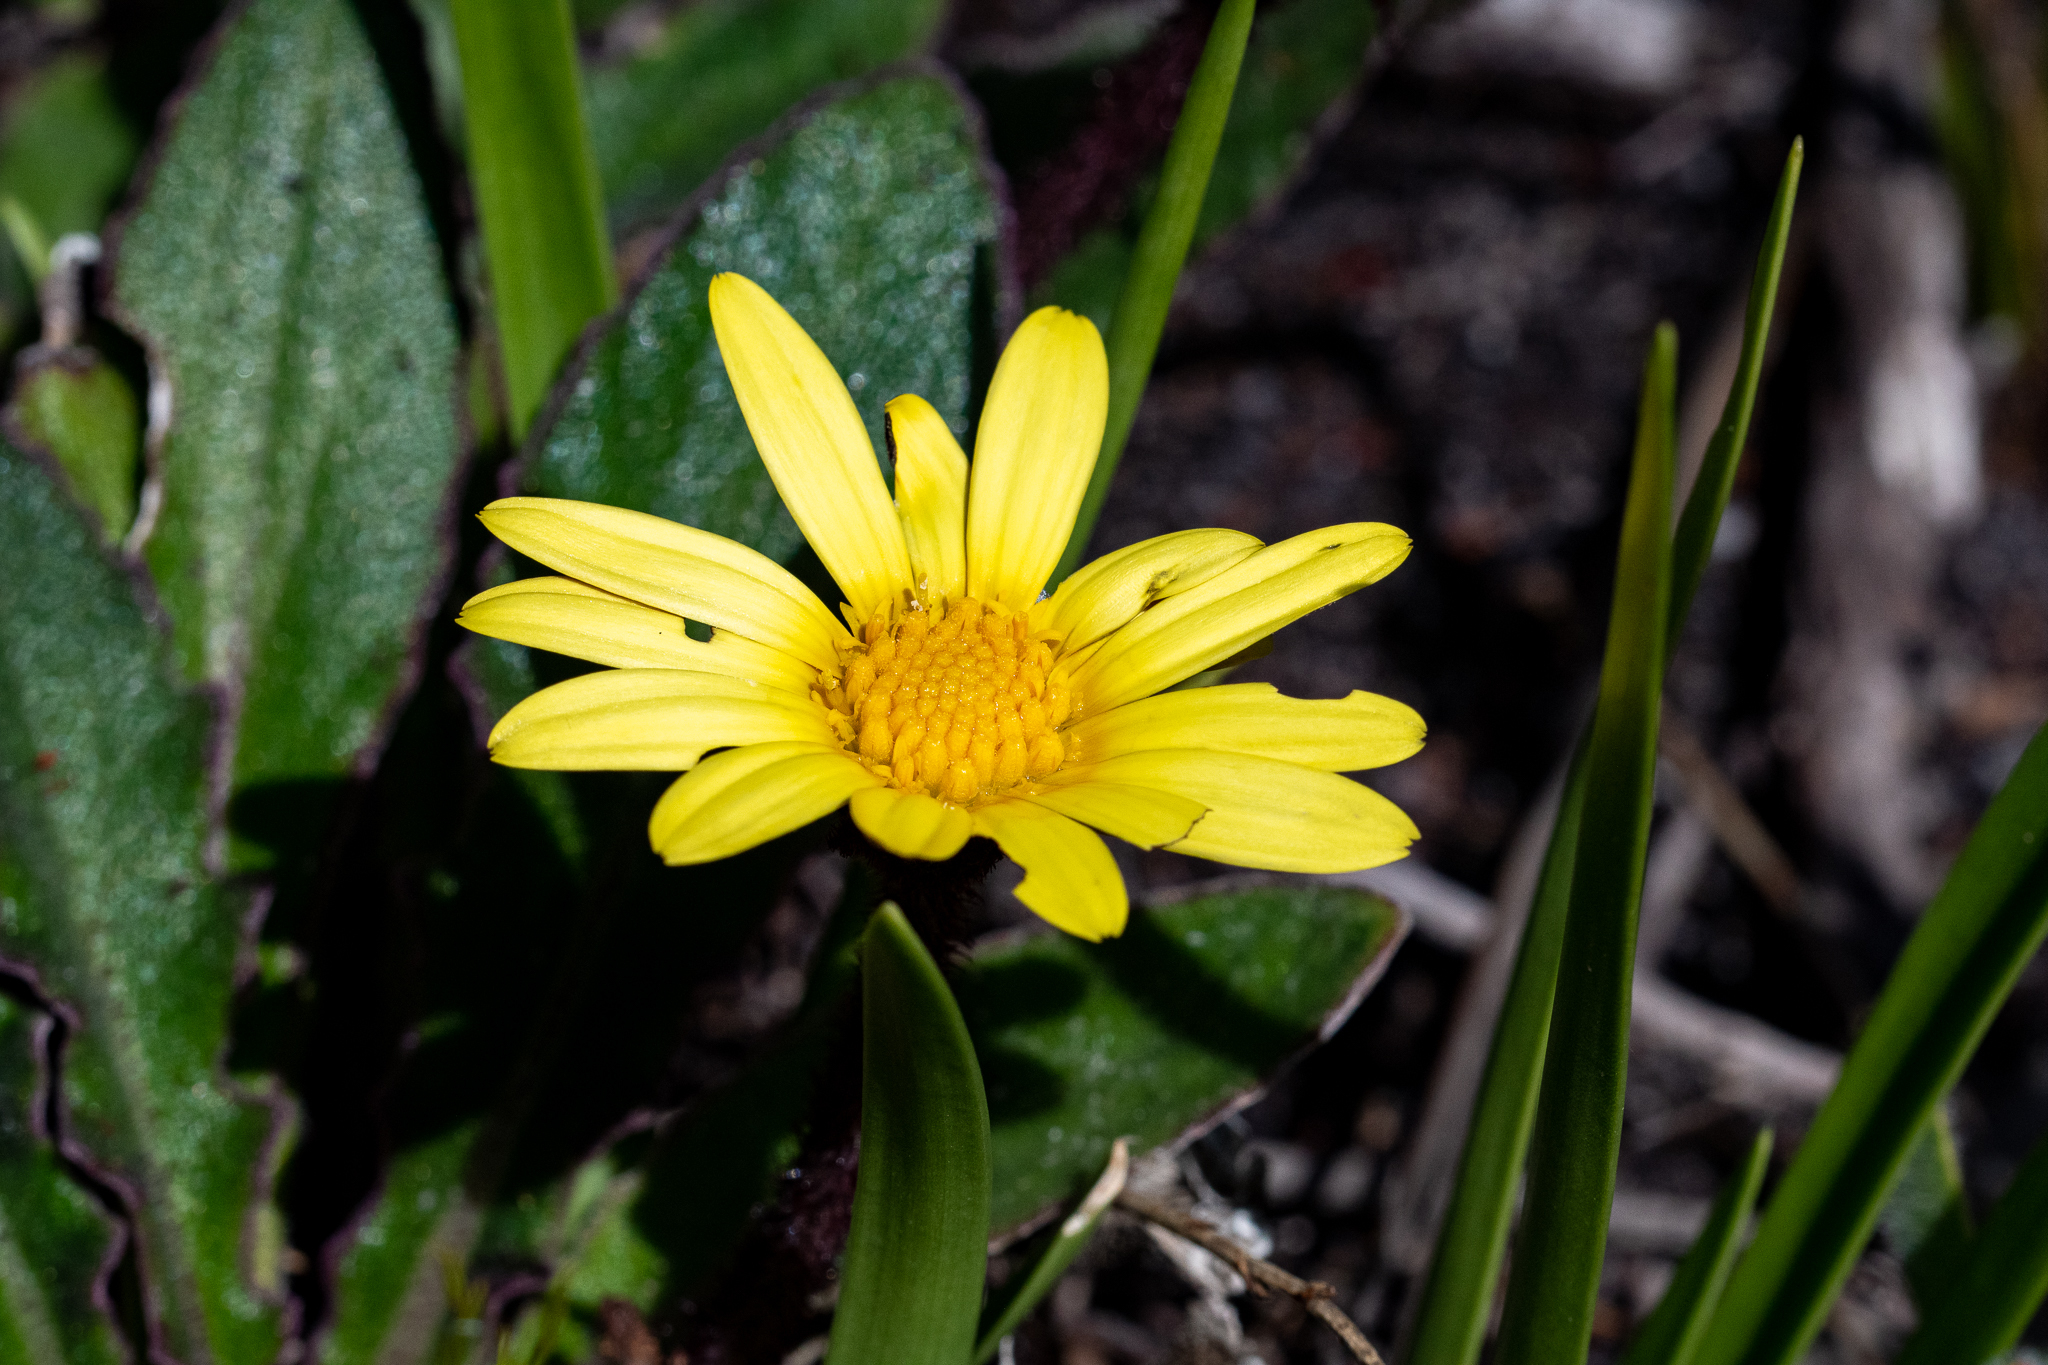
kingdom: Plantae
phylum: Tracheophyta
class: Magnoliopsida
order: Asterales
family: Asteraceae
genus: Haplocarpha
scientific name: Haplocarpha lanata
